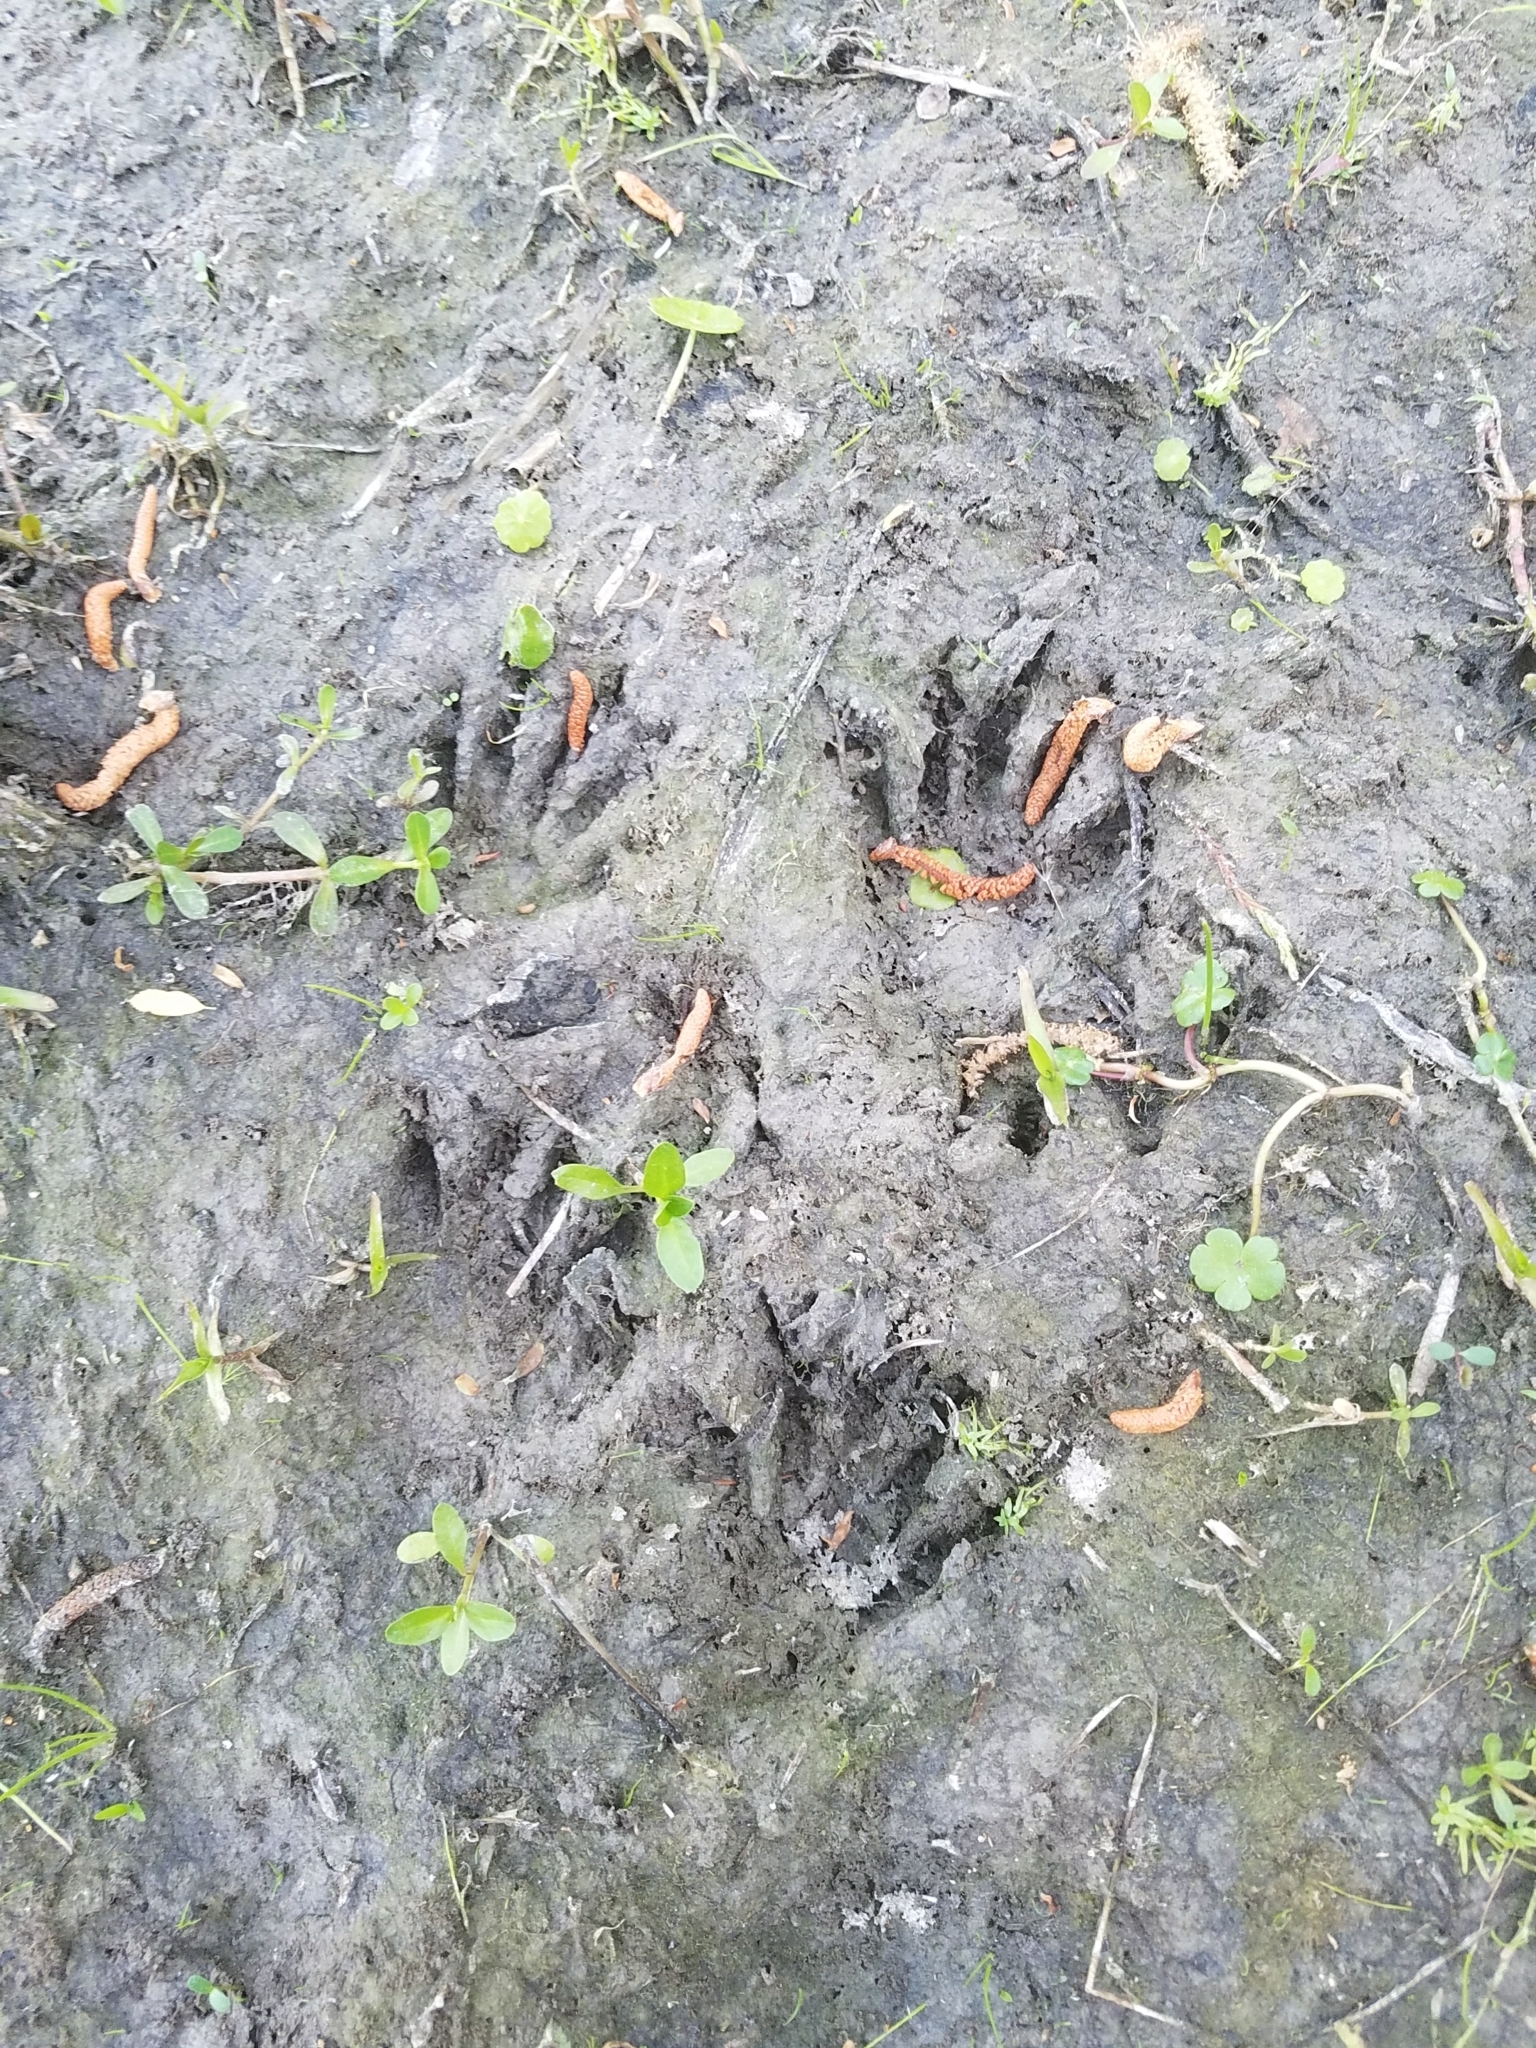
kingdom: Animalia
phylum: Chordata
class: Mammalia
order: Carnivora
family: Procyonidae
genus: Procyon
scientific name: Procyon lotor
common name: Raccoon
